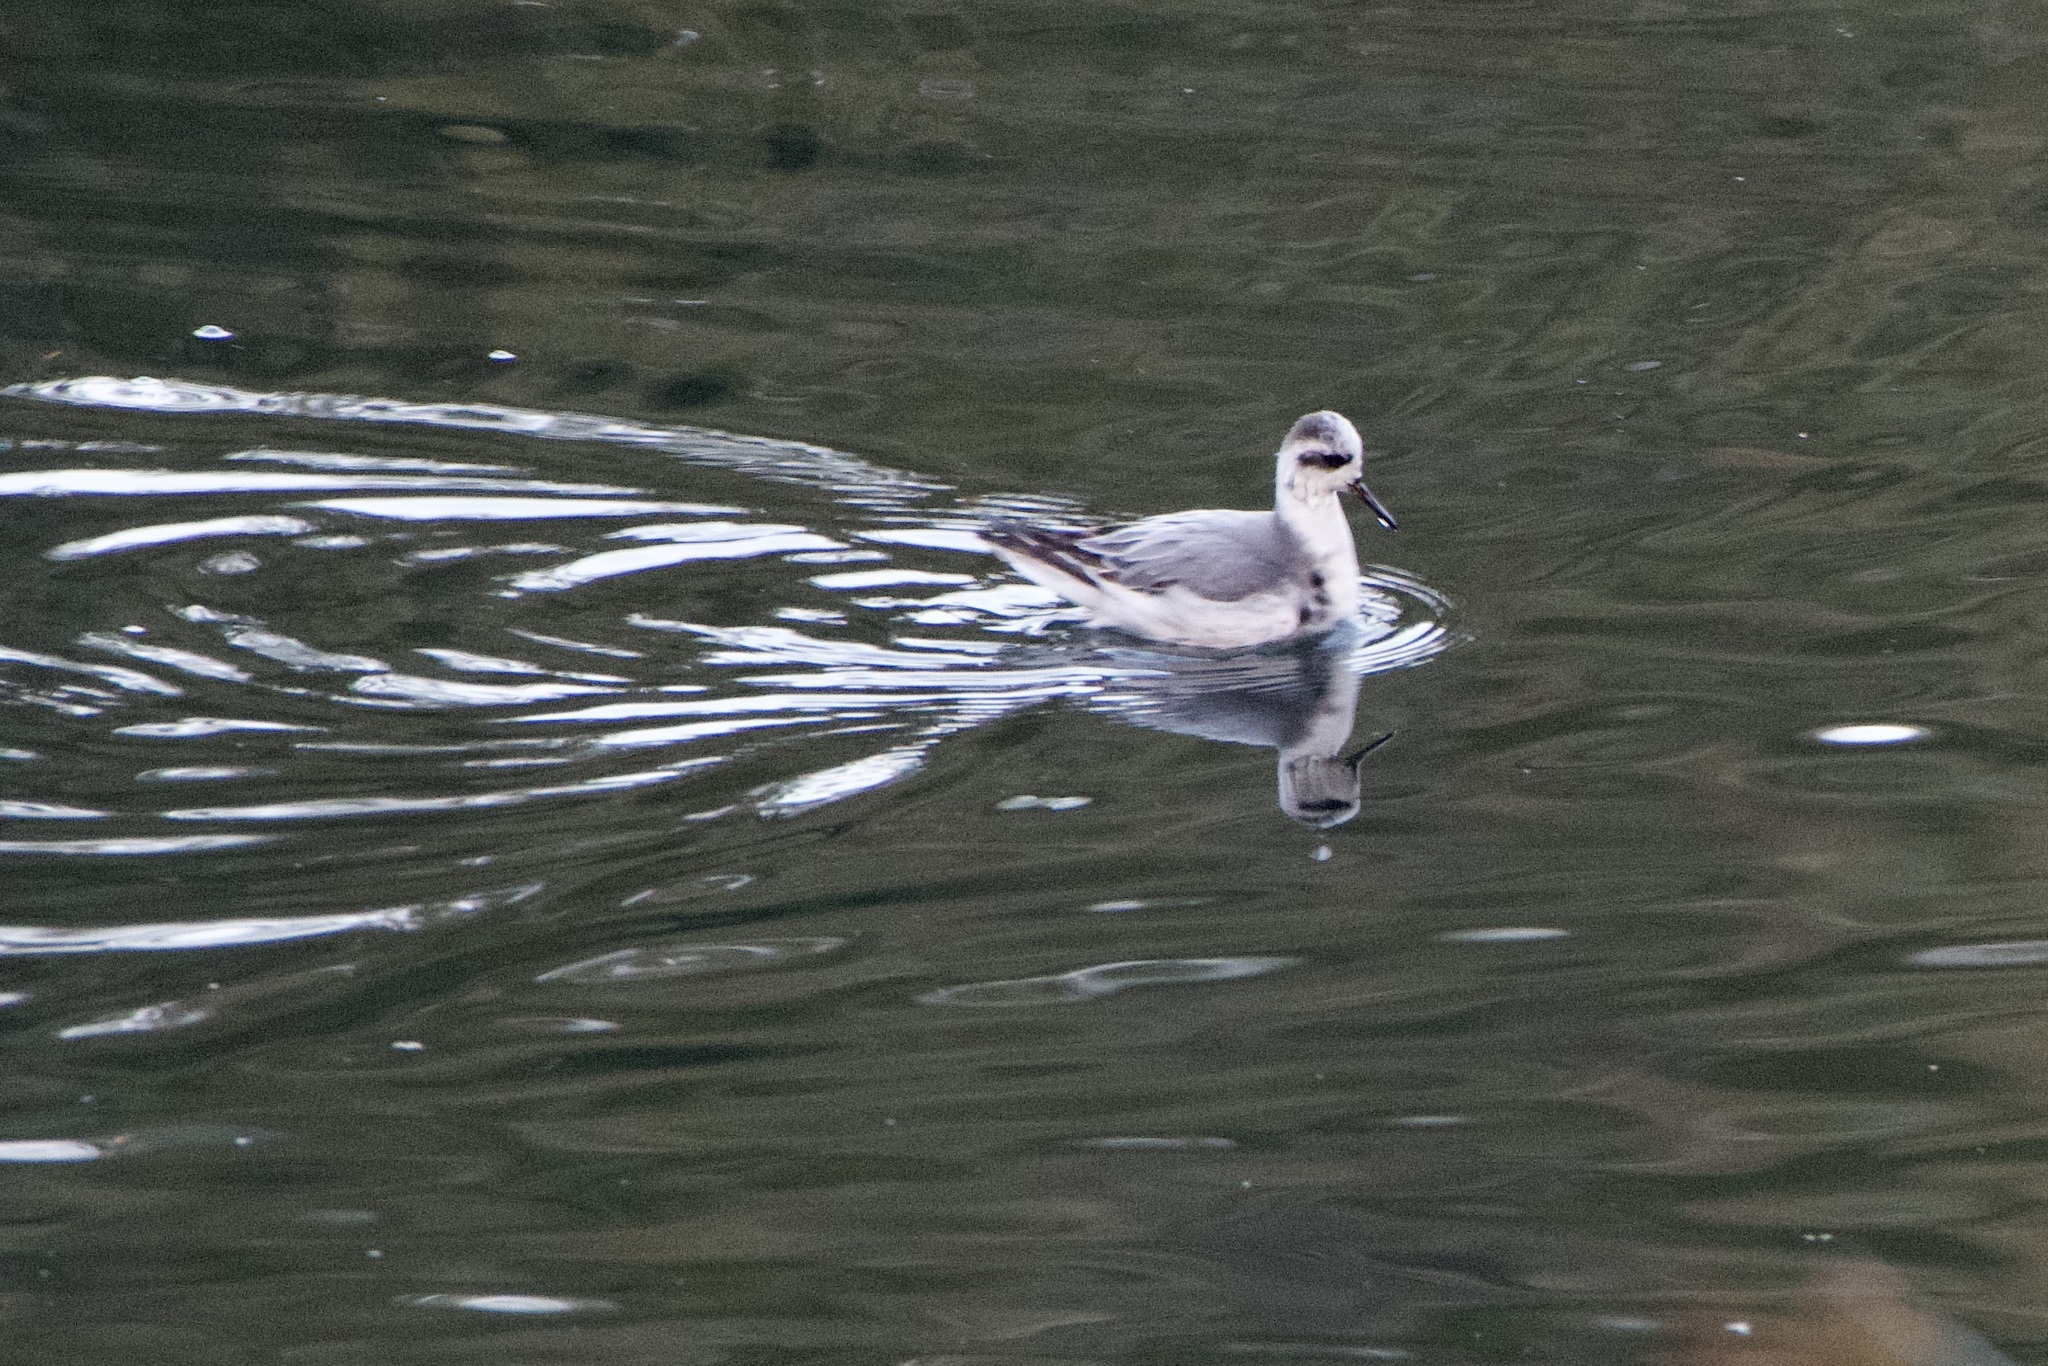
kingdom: Animalia
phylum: Chordata
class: Aves
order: Charadriiformes
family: Scolopacidae
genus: Phalaropus
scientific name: Phalaropus fulicarius
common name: Red phalarope
